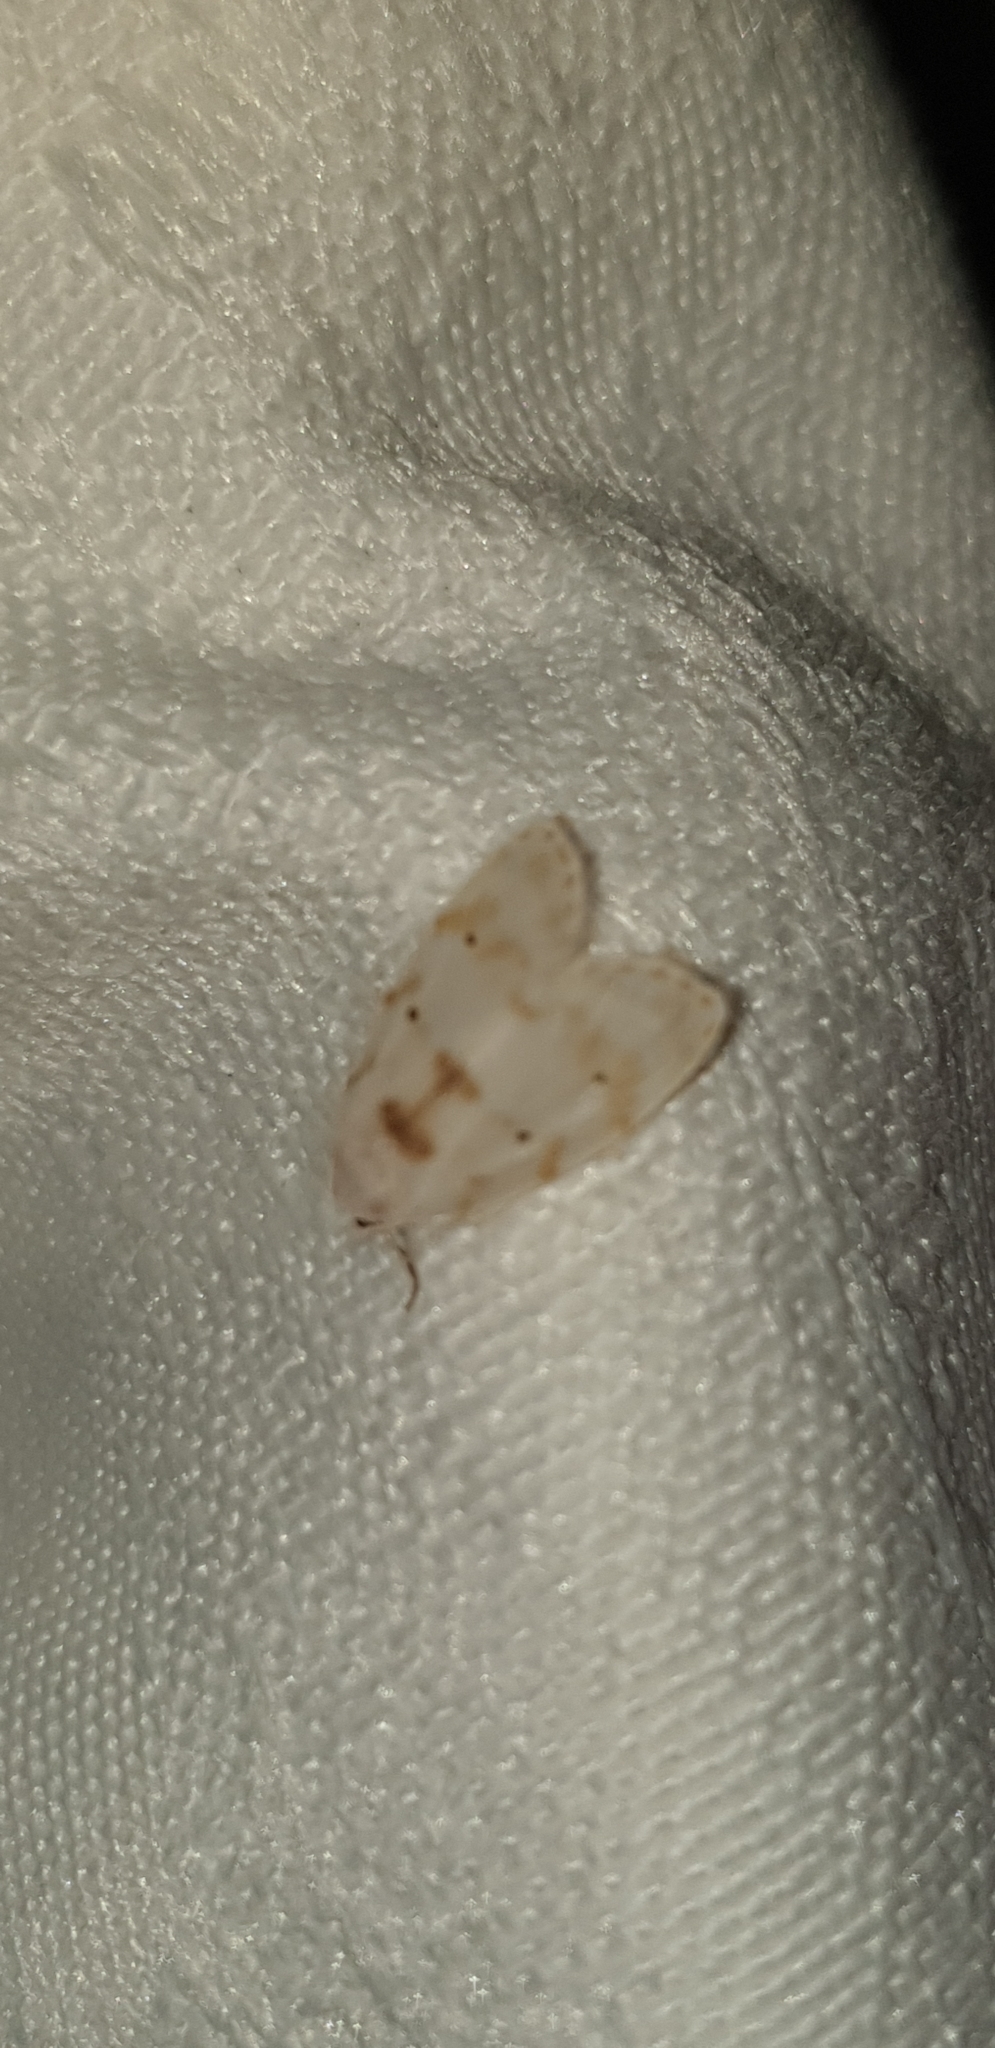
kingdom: Animalia
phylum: Arthropoda
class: Insecta
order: Lepidoptera
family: Erebidae
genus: Schistophleps
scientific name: Schistophleps albida
